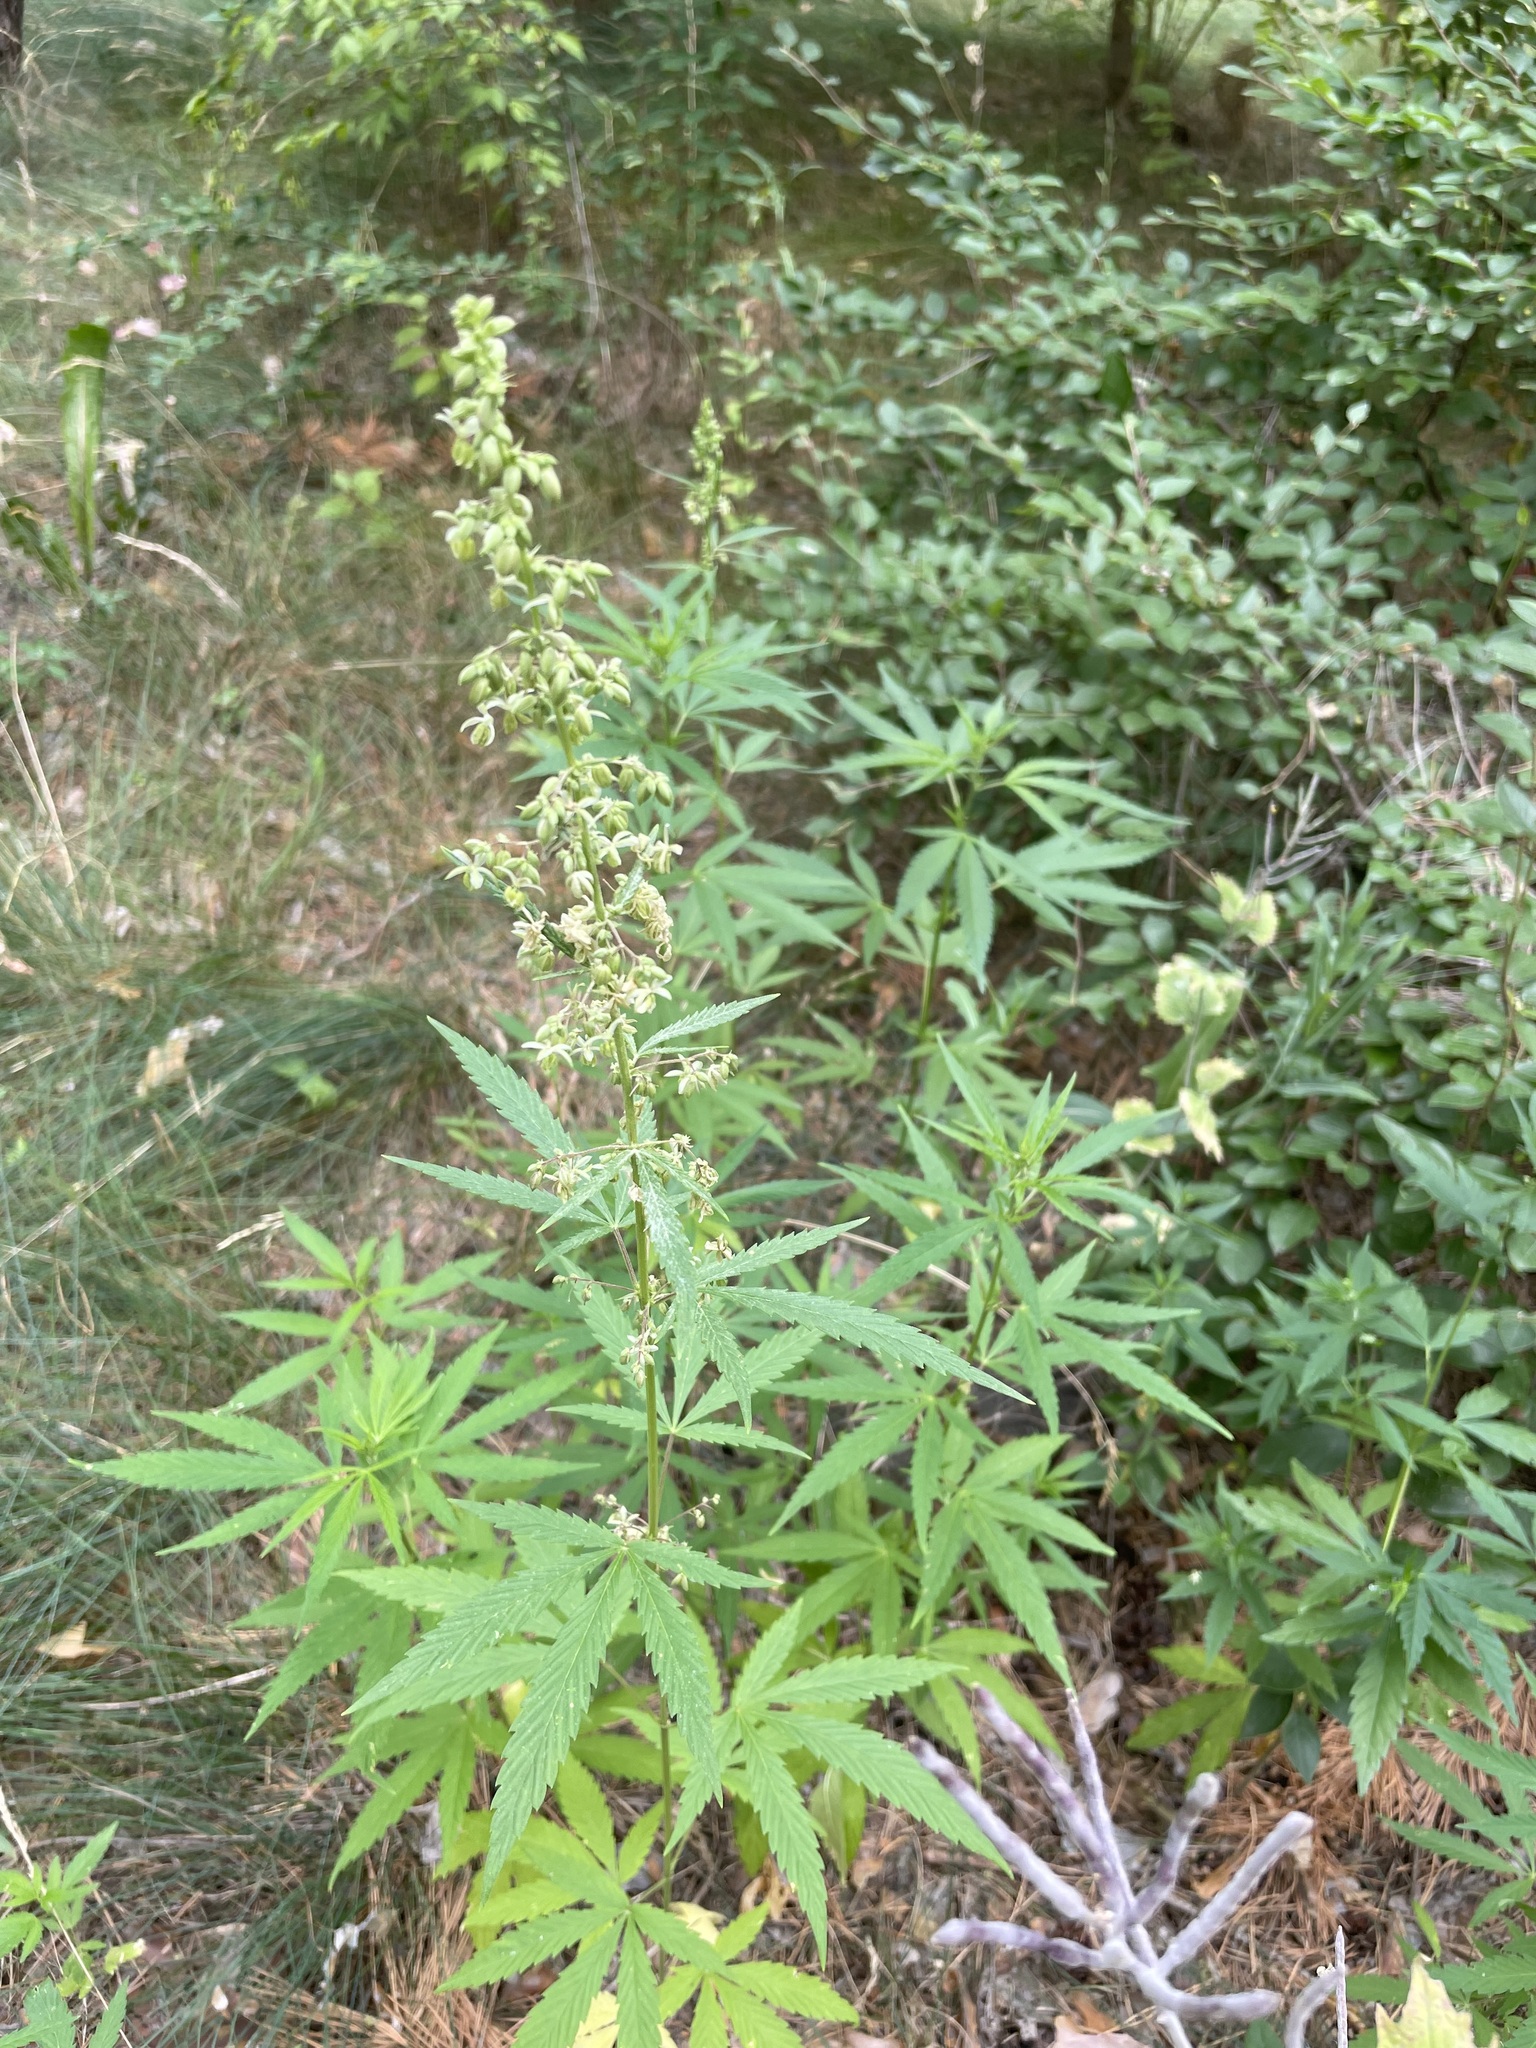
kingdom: Plantae
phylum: Tracheophyta
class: Magnoliopsida
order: Rosales
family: Cannabaceae
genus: Cannabis
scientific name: Cannabis sativa
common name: Hemp
